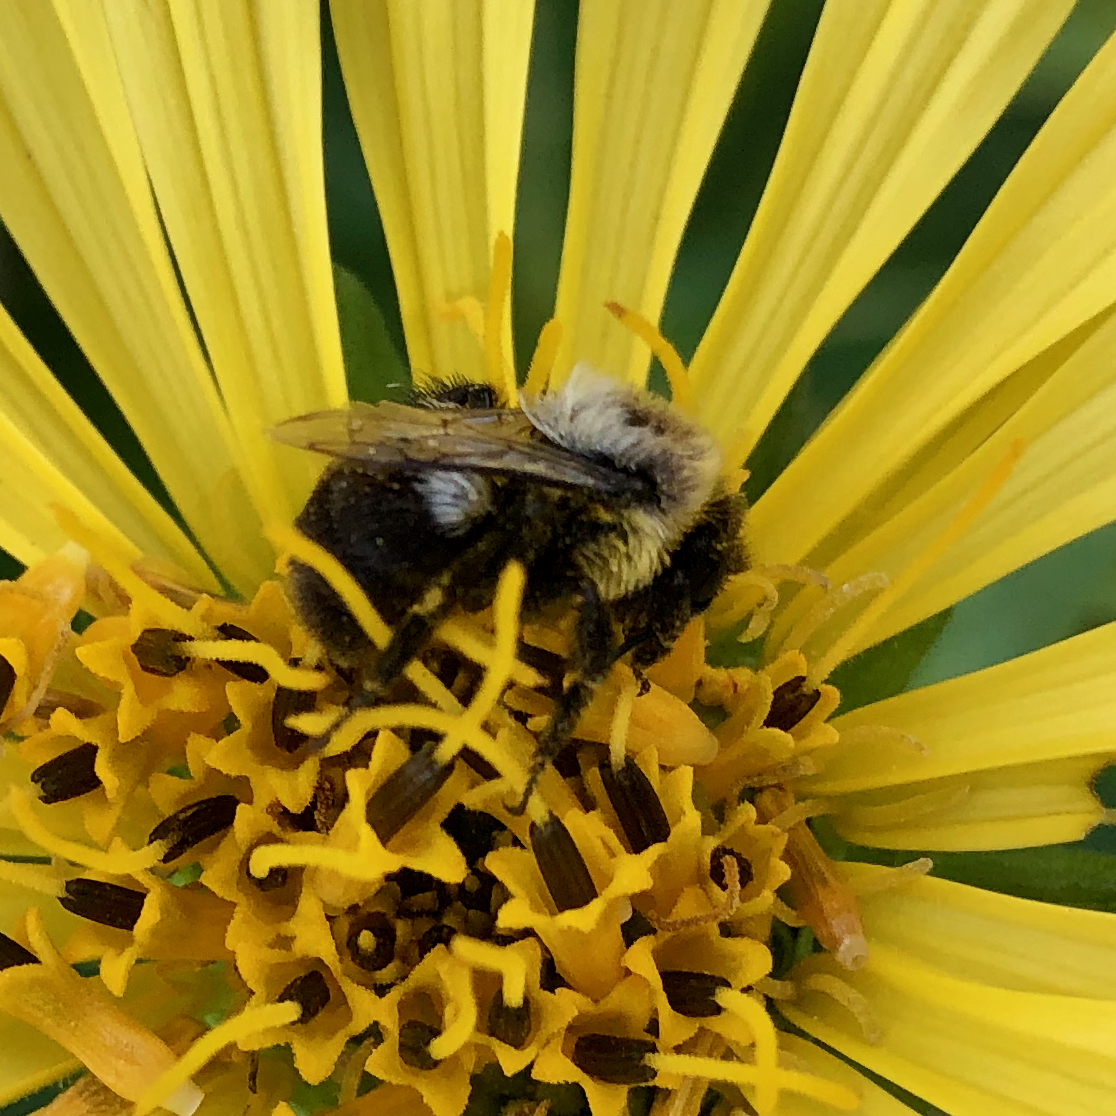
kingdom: Animalia
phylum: Arthropoda
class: Insecta
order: Hymenoptera
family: Apidae
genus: Bombus
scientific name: Bombus impatiens
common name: Common eastern bumble bee
